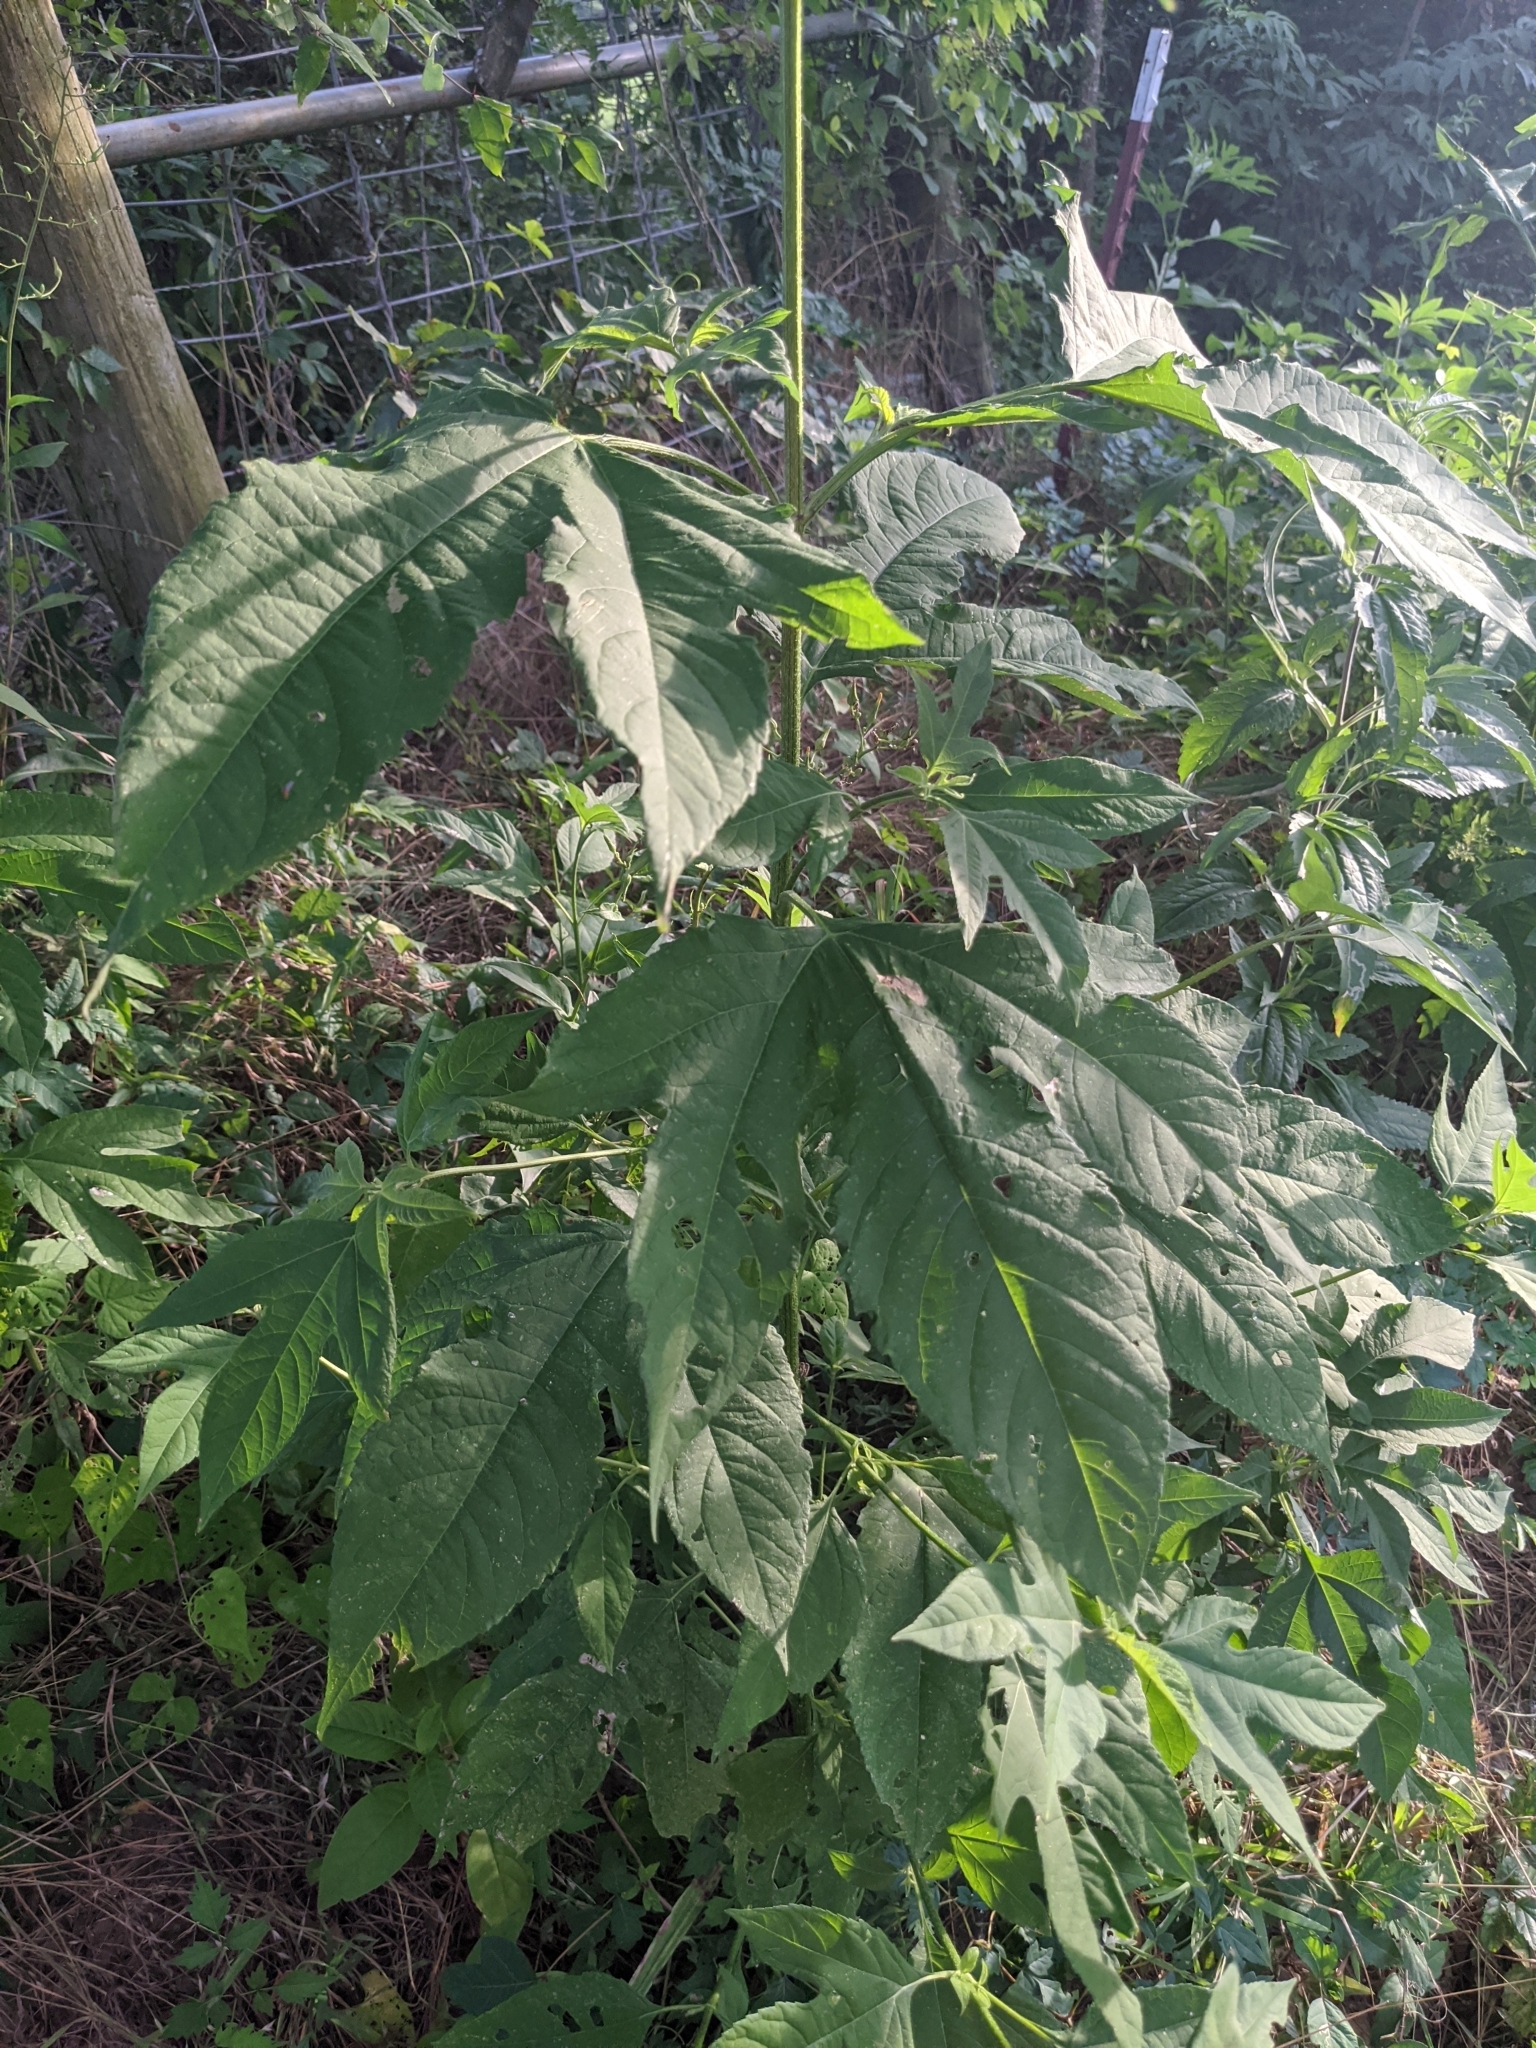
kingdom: Plantae
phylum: Tracheophyta
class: Magnoliopsida
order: Asterales
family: Asteraceae
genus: Ambrosia
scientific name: Ambrosia trifida
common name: Giant ragweed
